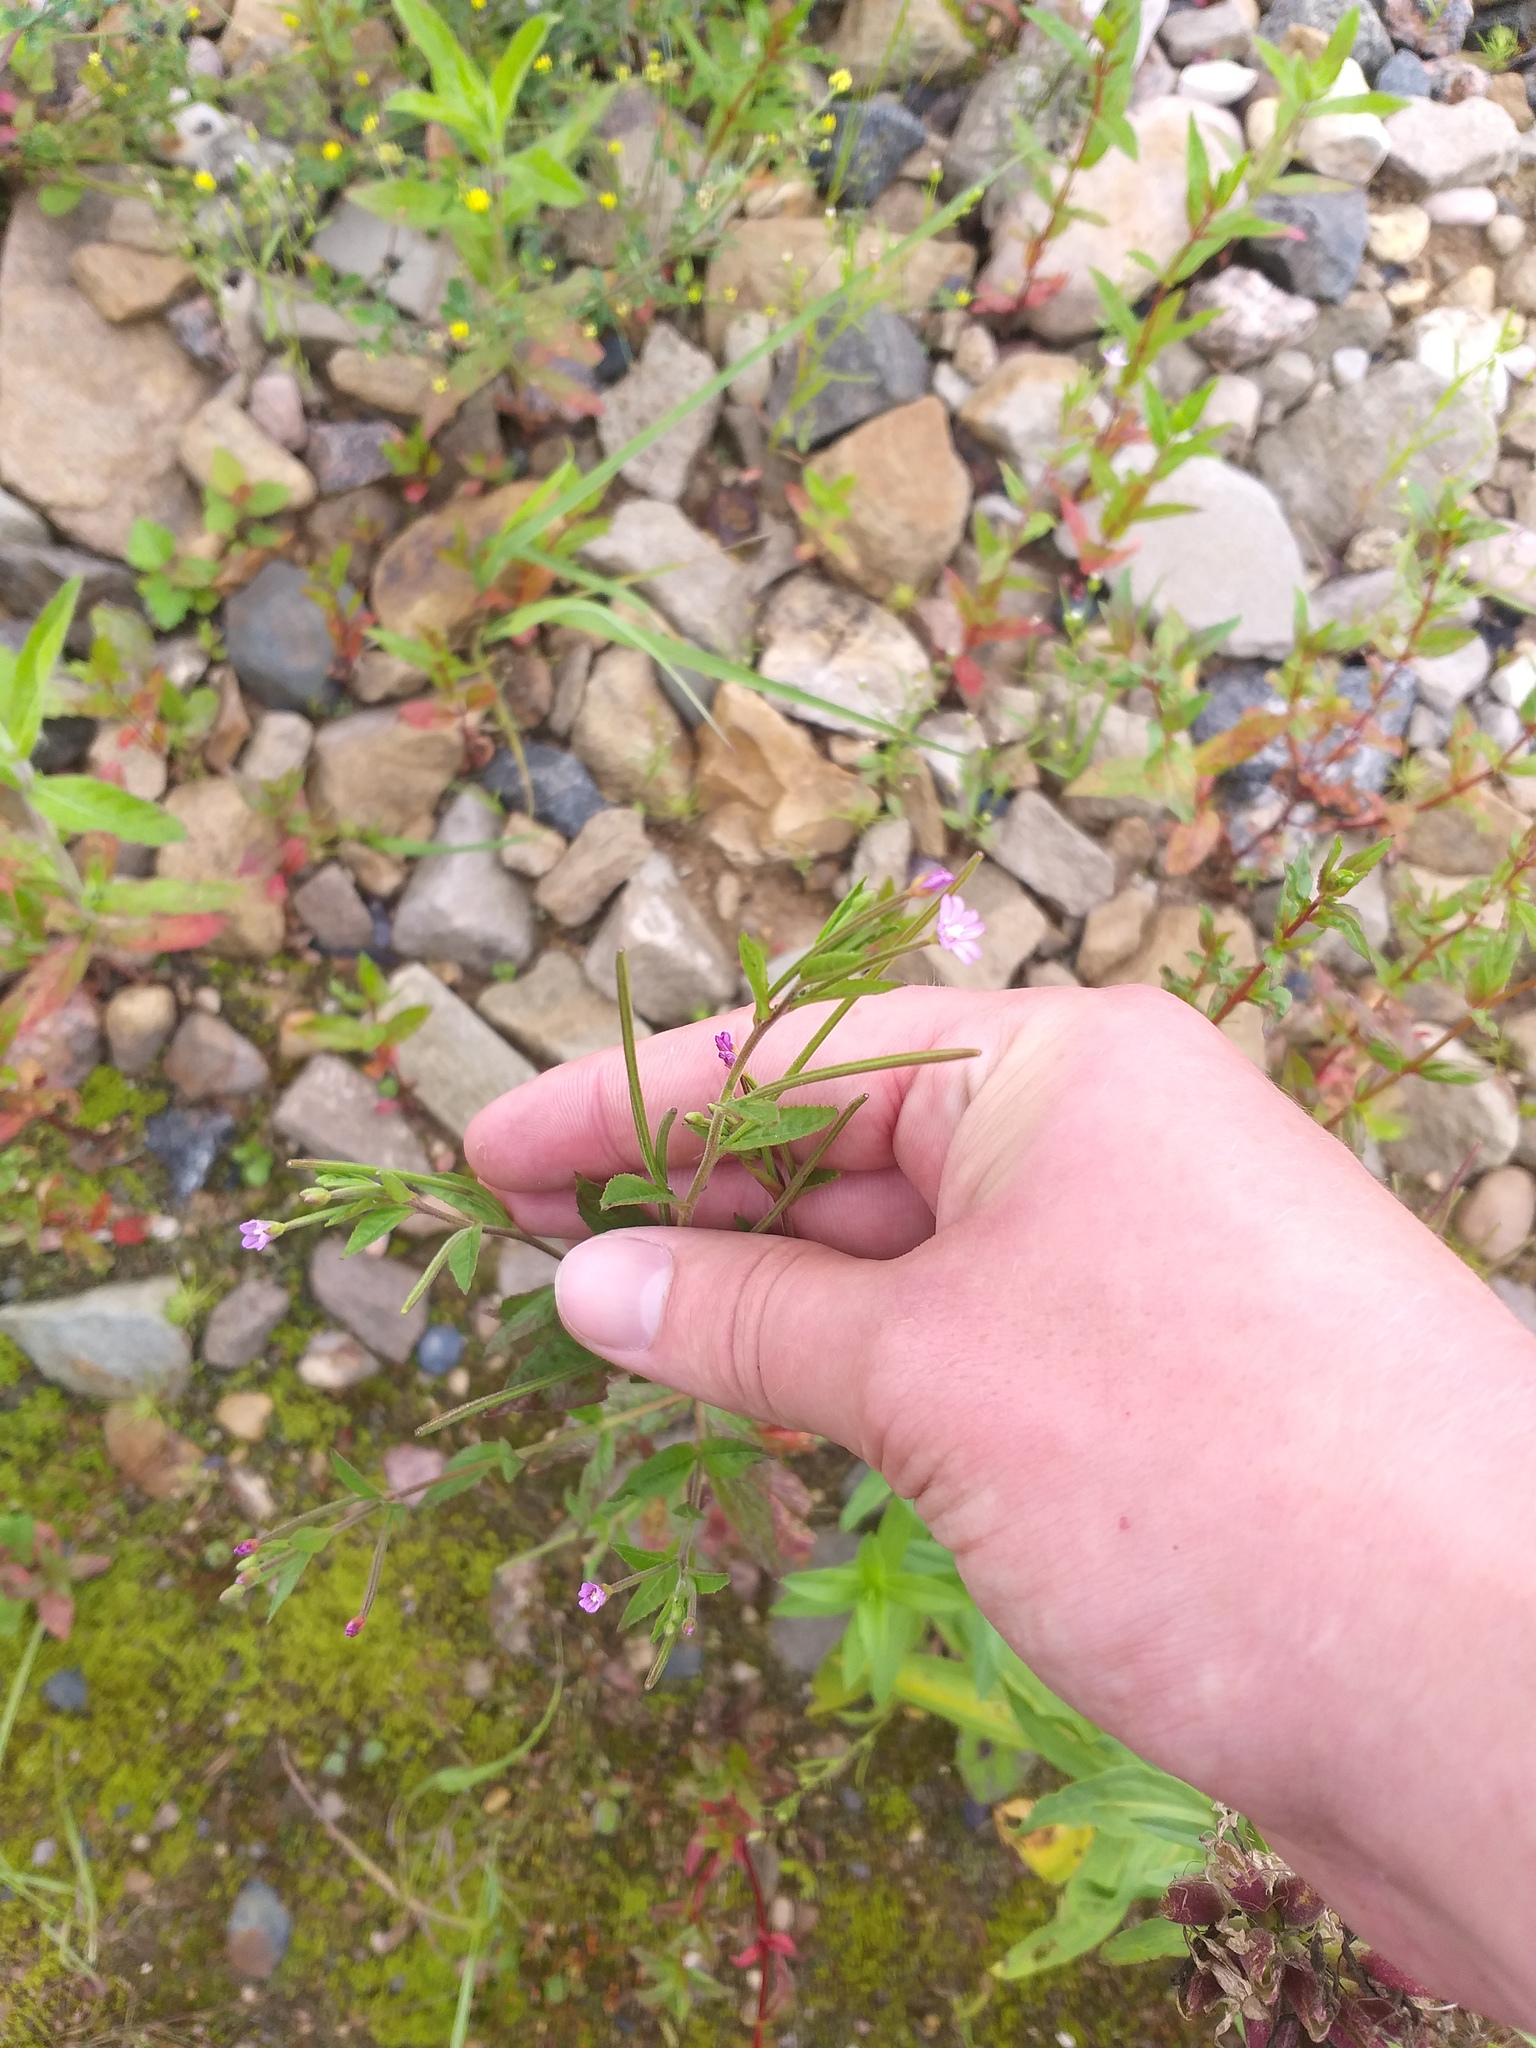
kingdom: Plantae
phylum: Tracheophyta
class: Magnoliopsida
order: Myrtales
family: Onagraceae
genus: Epilobium
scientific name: Epilobium ciliatum
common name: American willowherb
